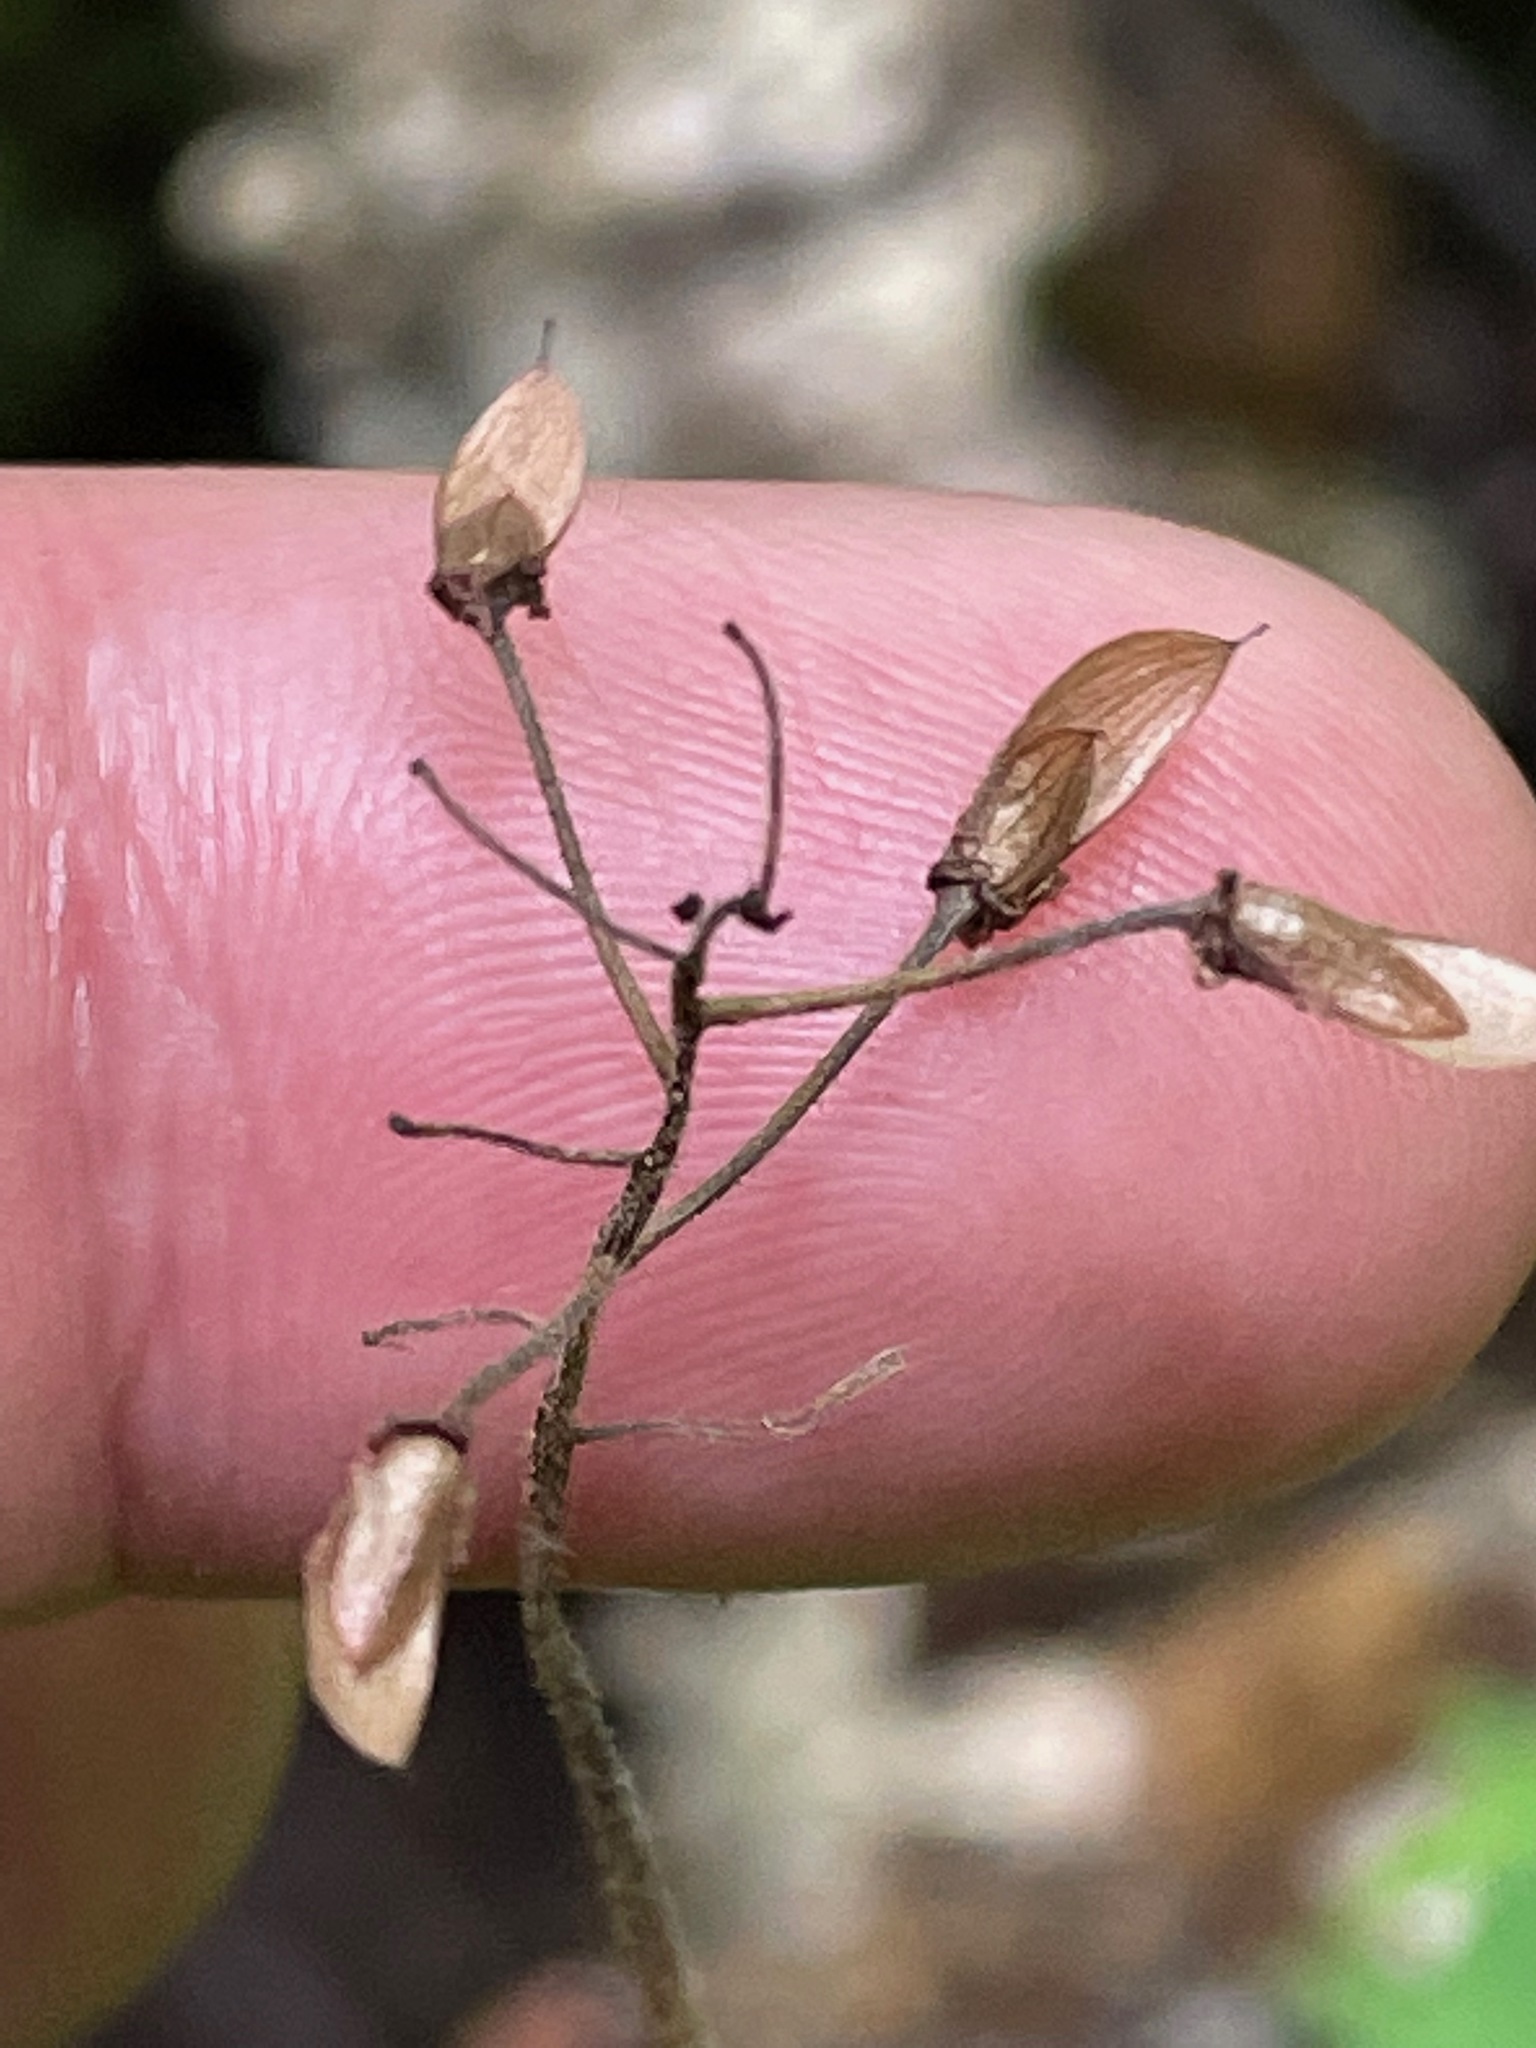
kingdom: Plantae
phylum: Tracheophyta
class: Magnoliopsida
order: Saxifragales
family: Saxifragaceae
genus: Tiarella
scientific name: Tiarella stolonifera
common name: Stoloniferous foamflower
